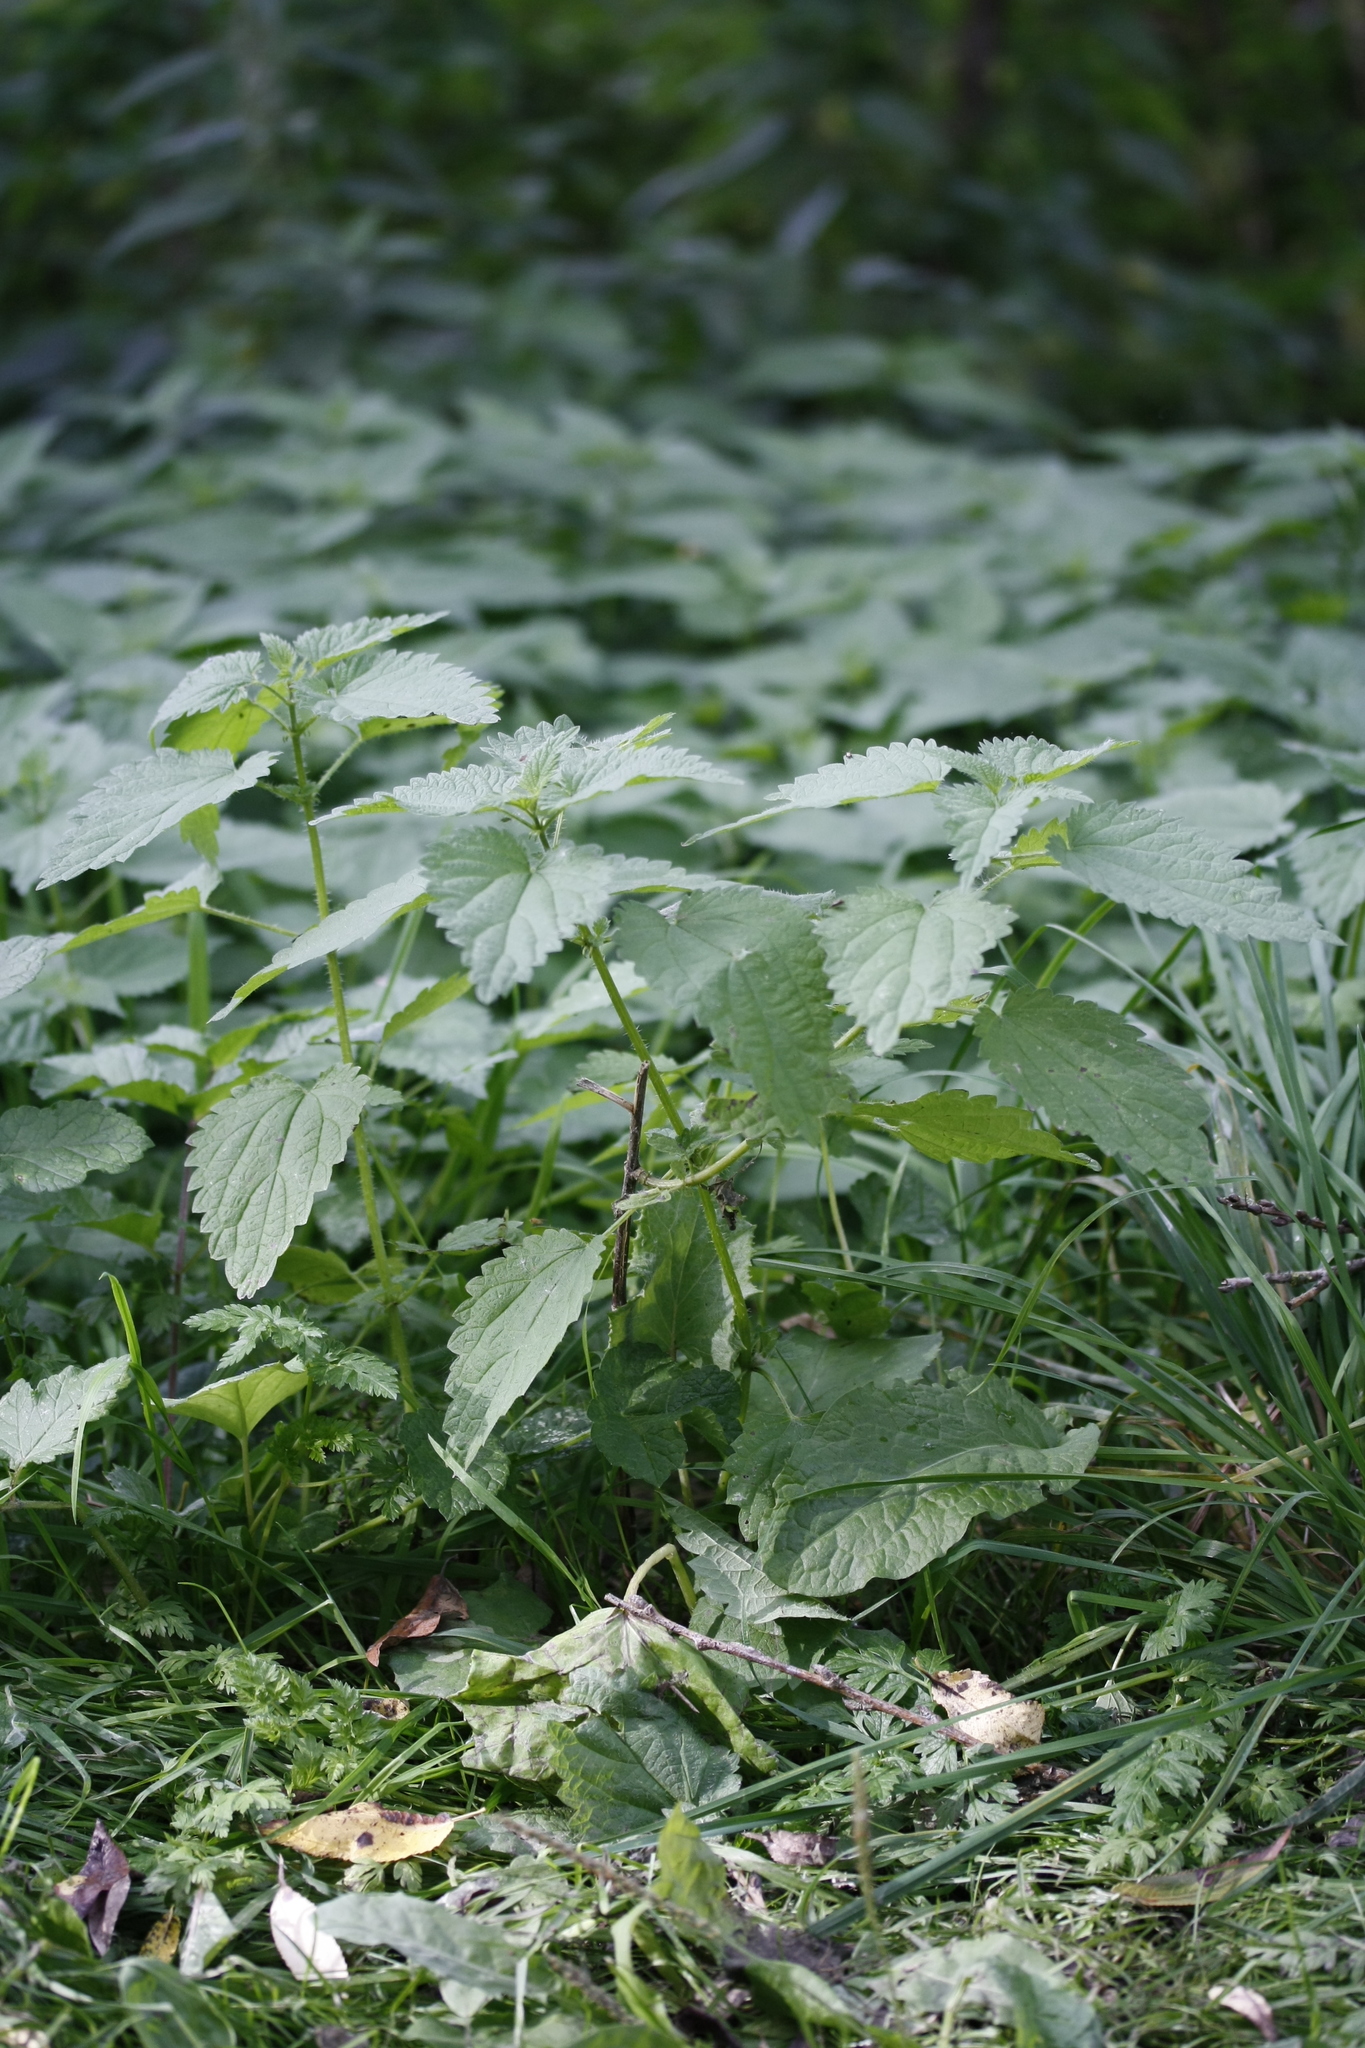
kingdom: Plantae
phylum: Tracheophyta
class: Magnoliopsida
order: Rosales
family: Urticaceae
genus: Urtica
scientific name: Urtica dioica
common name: Common nettle
